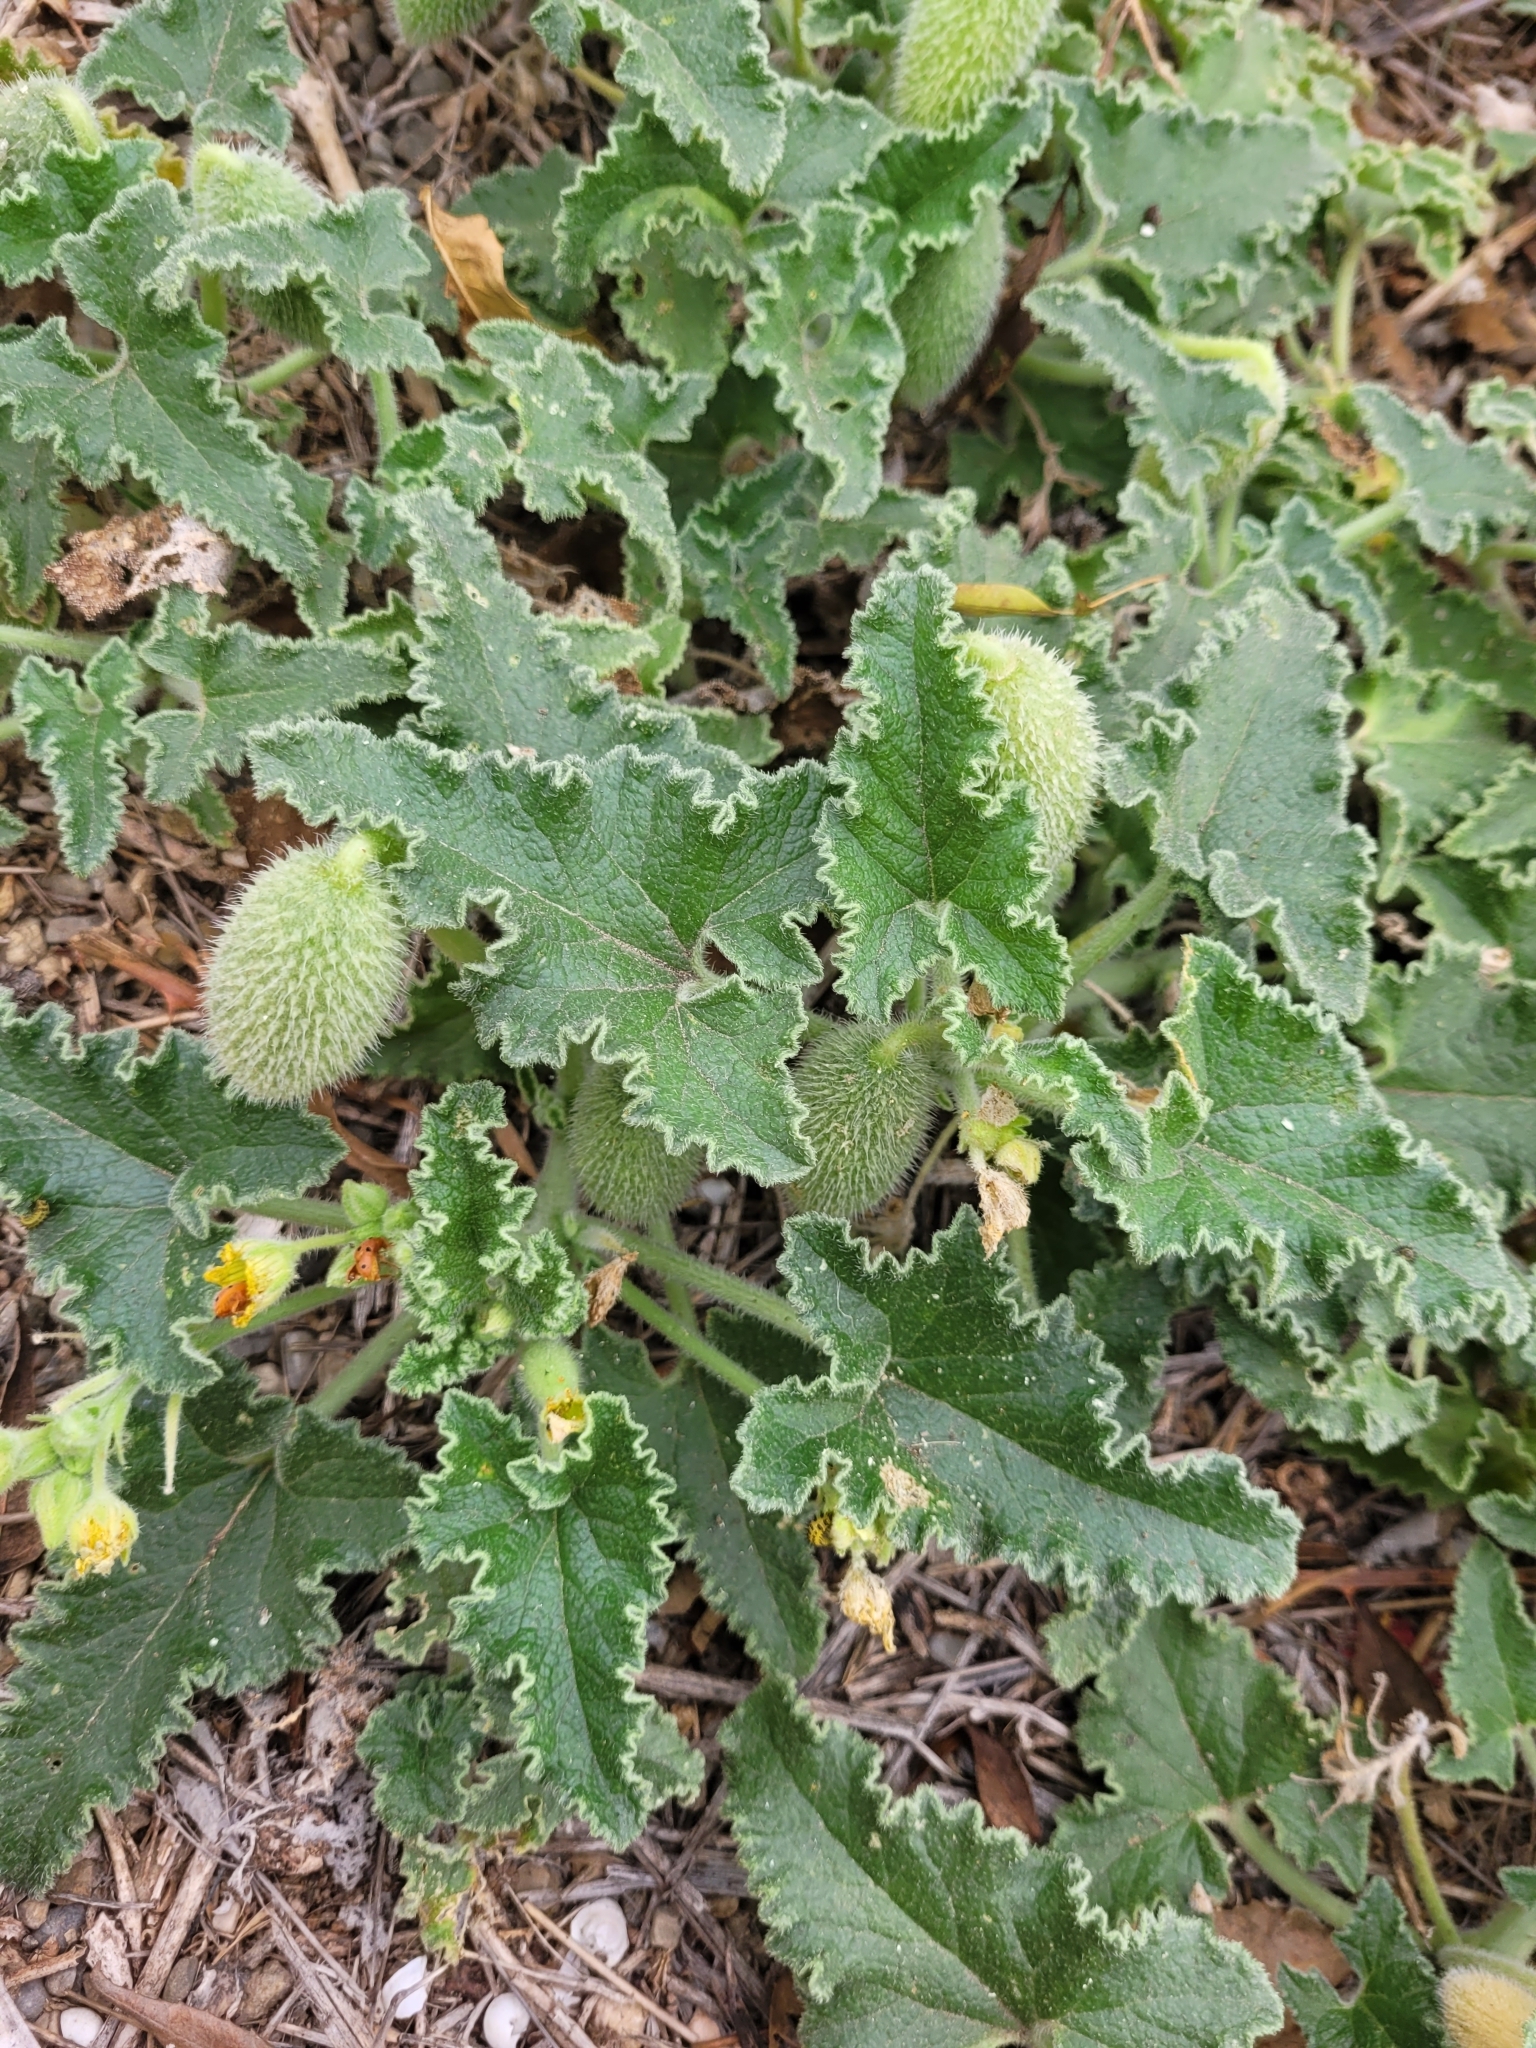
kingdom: Plantae
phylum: Tracheophyta
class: Magnoliopsida
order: Cucurbitales
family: Cucurbitaceae
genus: Ecballium
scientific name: Ecballium elaterium
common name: Squirting cucumber
